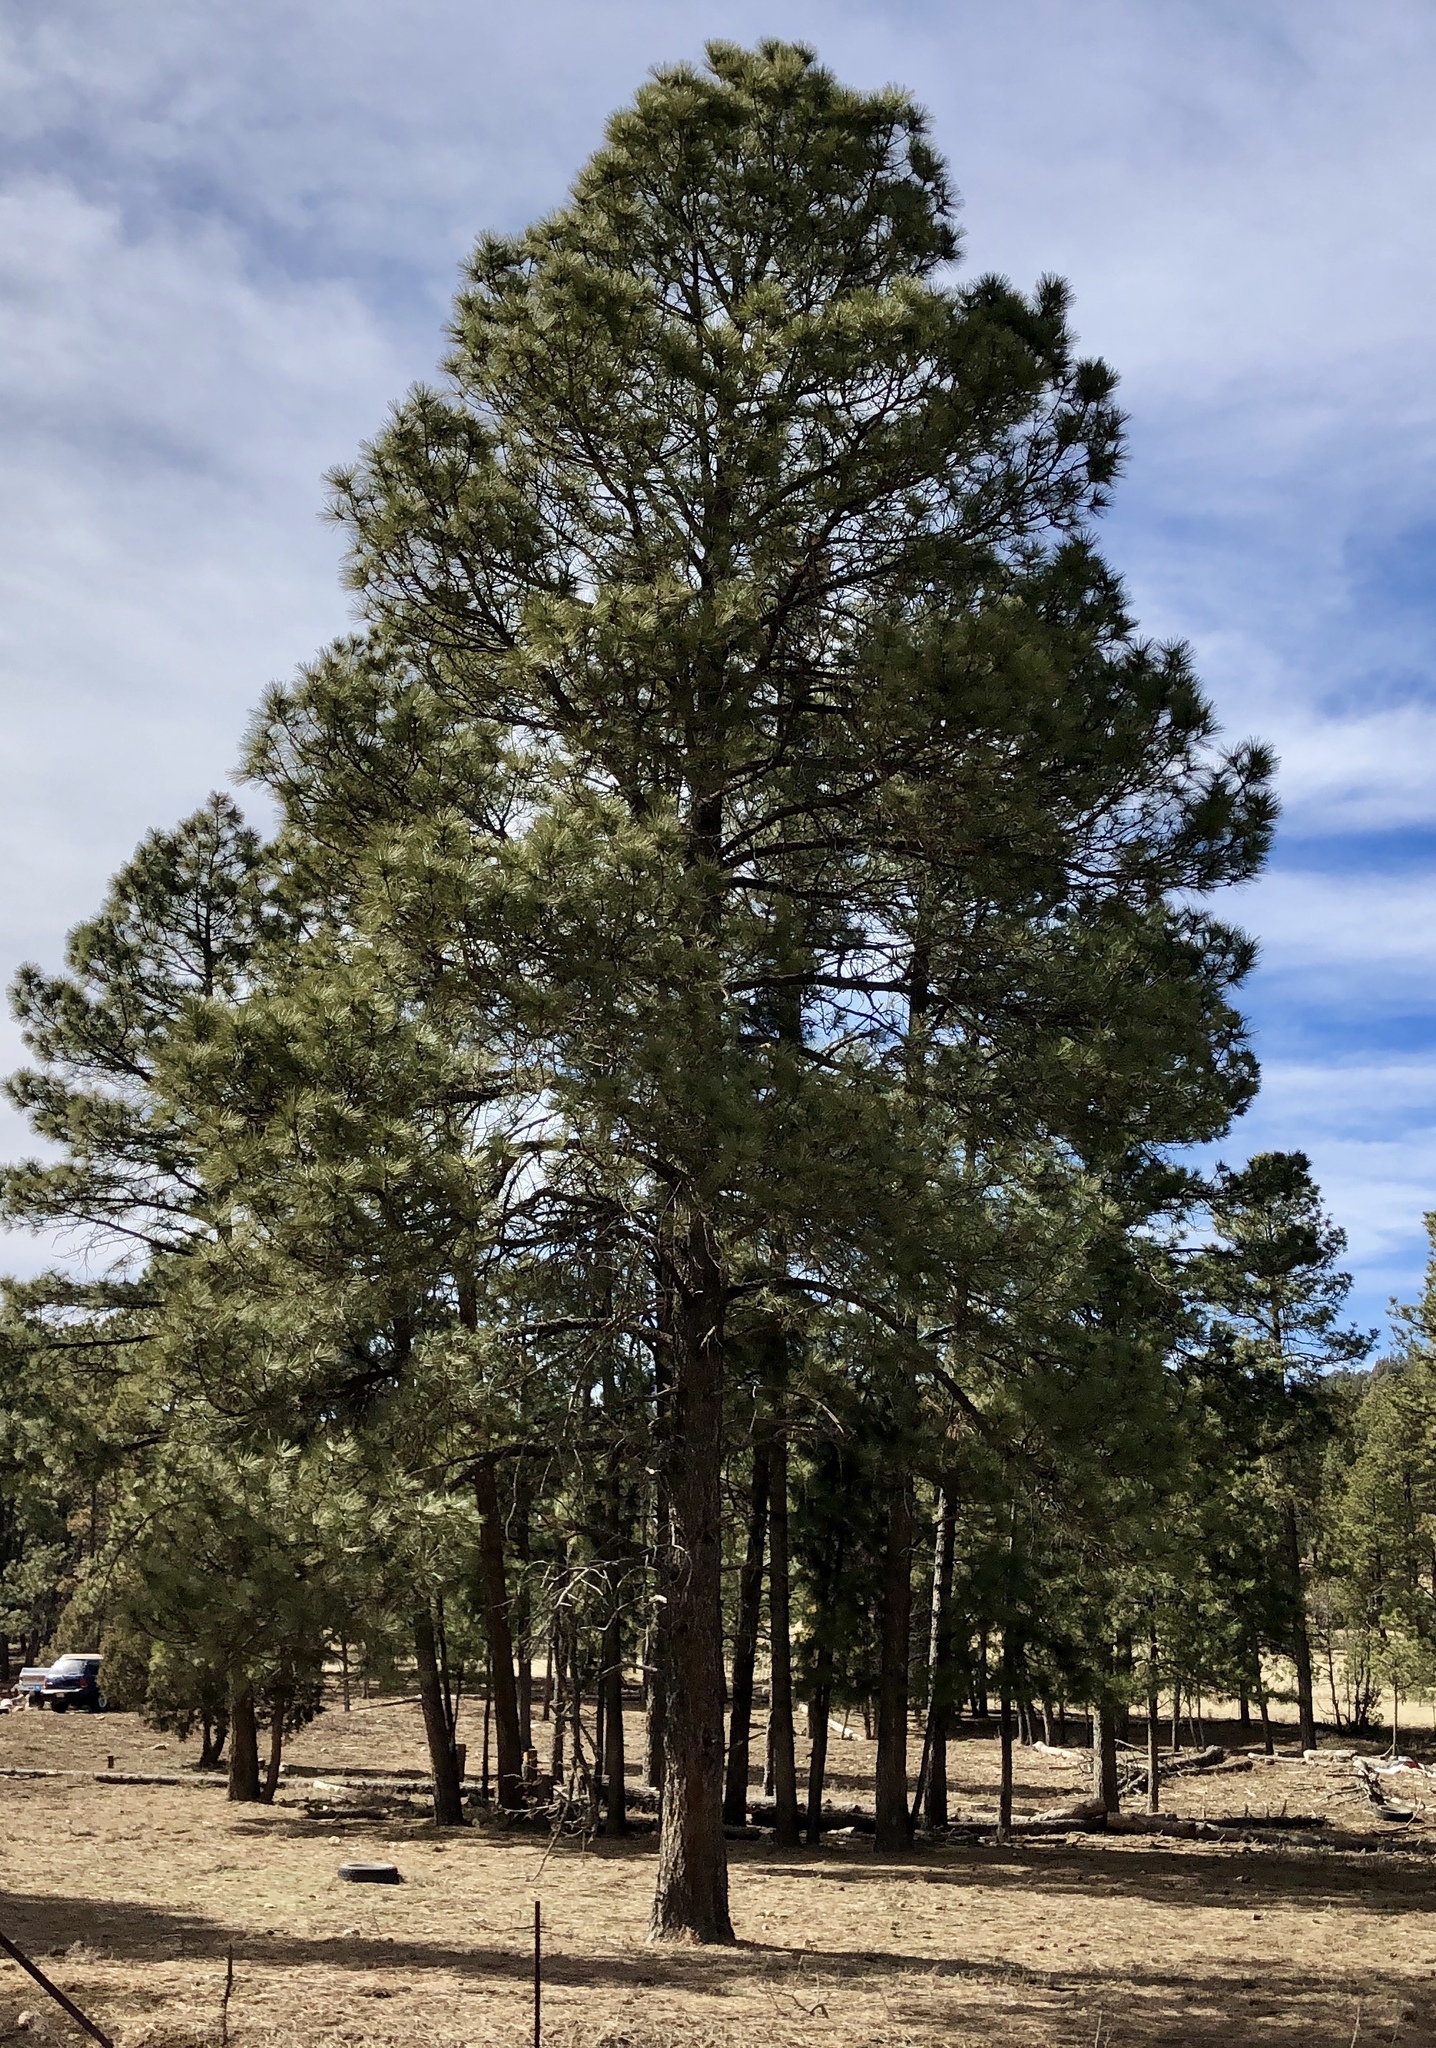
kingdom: Plantae
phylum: Tracheophyta
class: Pinopsida
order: Pinales
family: Pinaceae
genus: Pinus
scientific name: Pinus ponderosa
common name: Western yellow-pine
